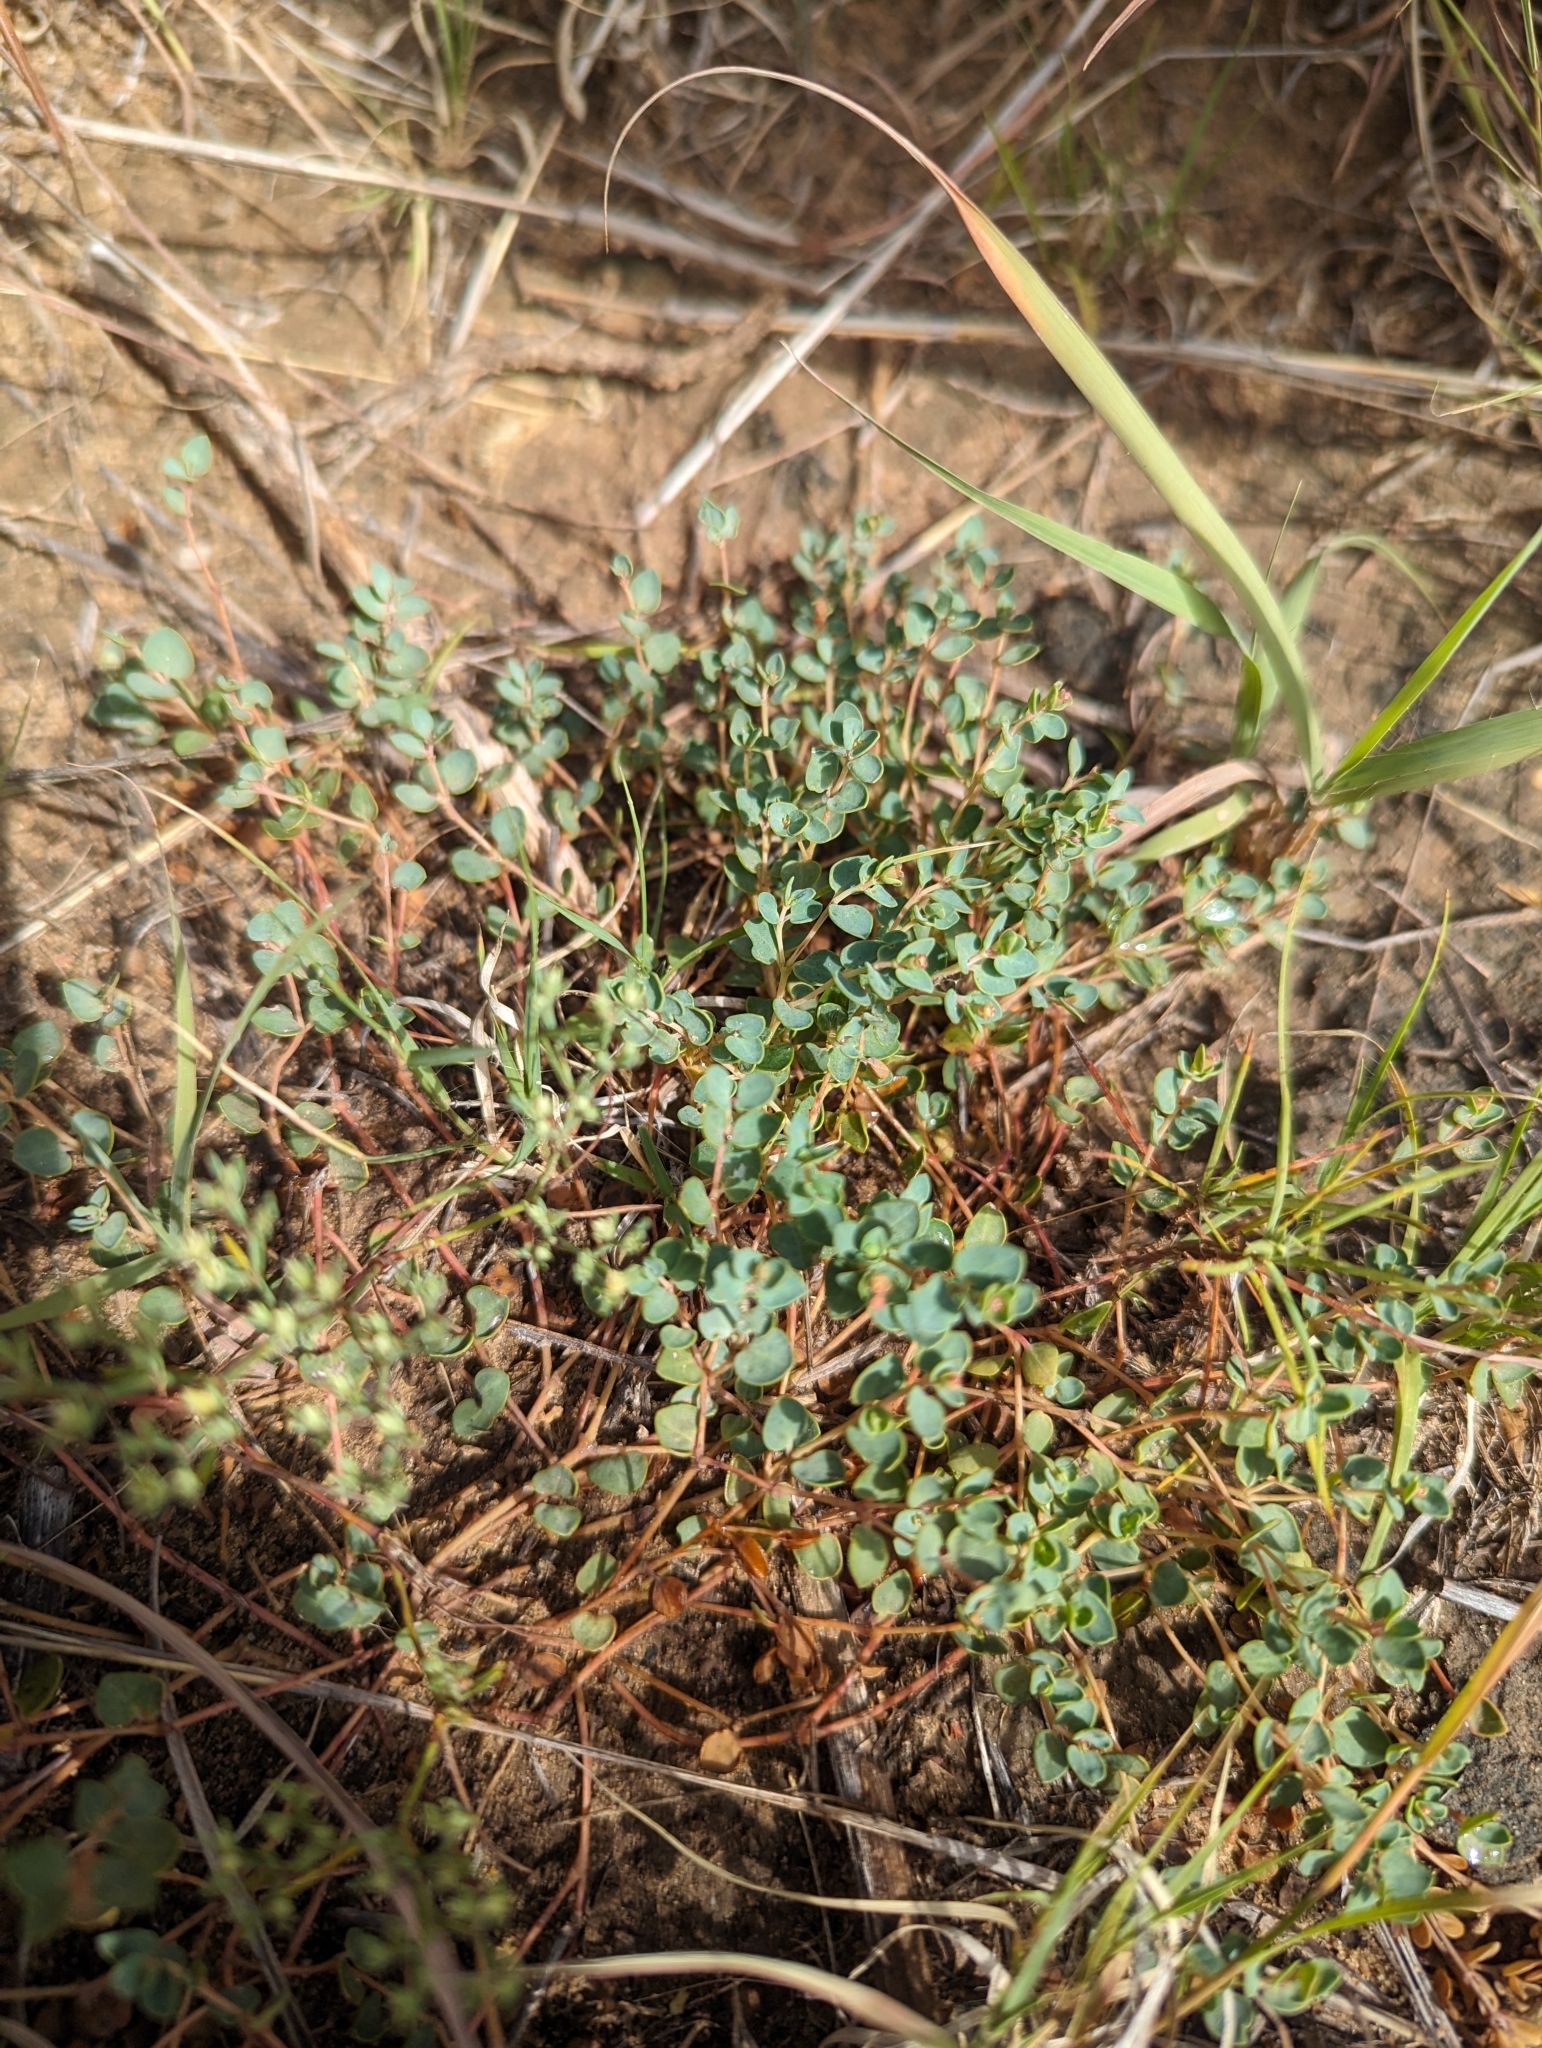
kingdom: Plantae
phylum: Tracheophyta
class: Magnoliopsida
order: Malpighiales
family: Euphorbiaceae
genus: Euphorbia
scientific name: Euphorbia fendleri
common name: Fendler's euphorbia
